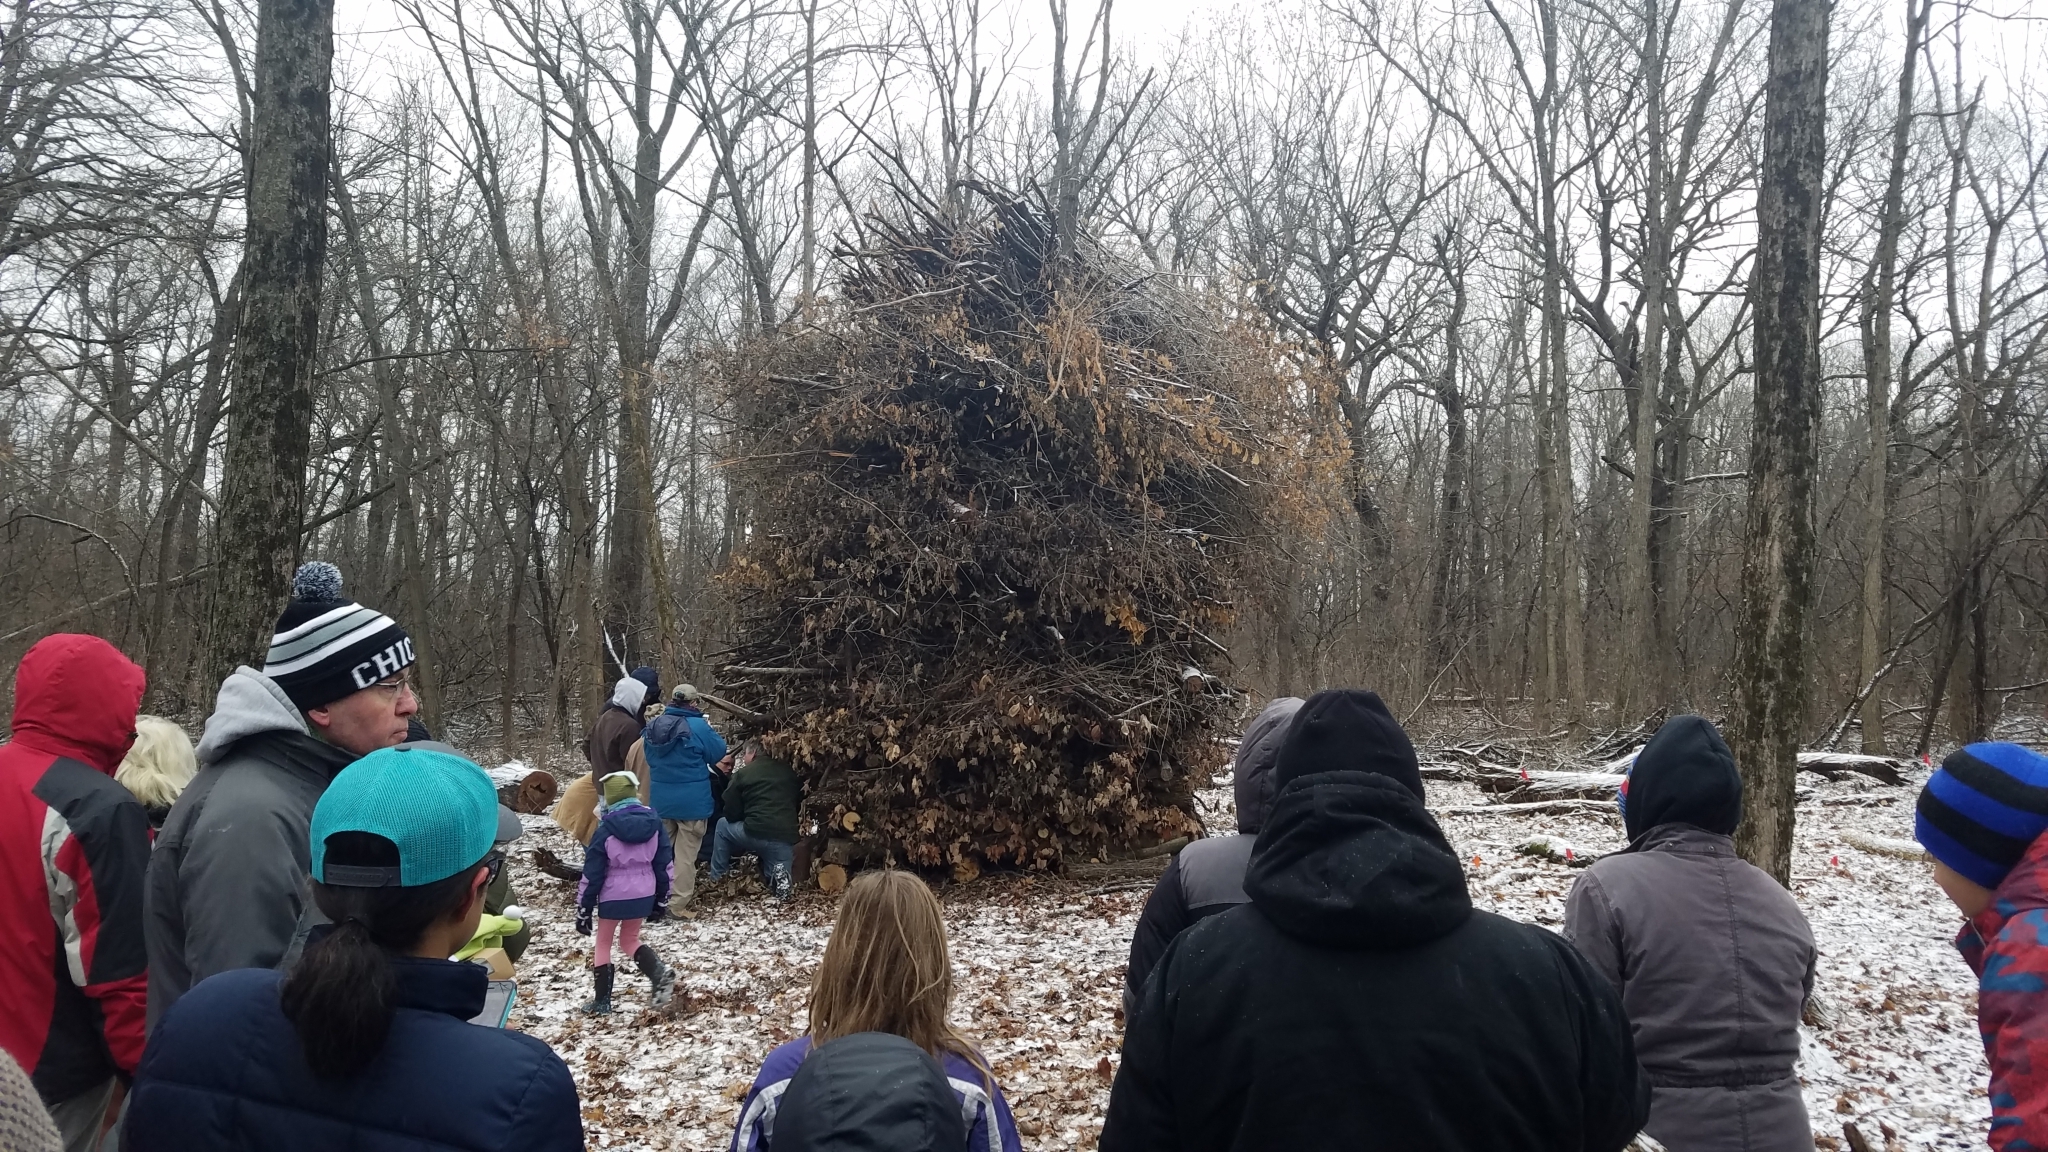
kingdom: Plantae
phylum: Tracheophyta
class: Magnoliopsida
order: Sapindales
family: Sapindaceae
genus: Acer
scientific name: Acer saccharum
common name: Sugar maple
